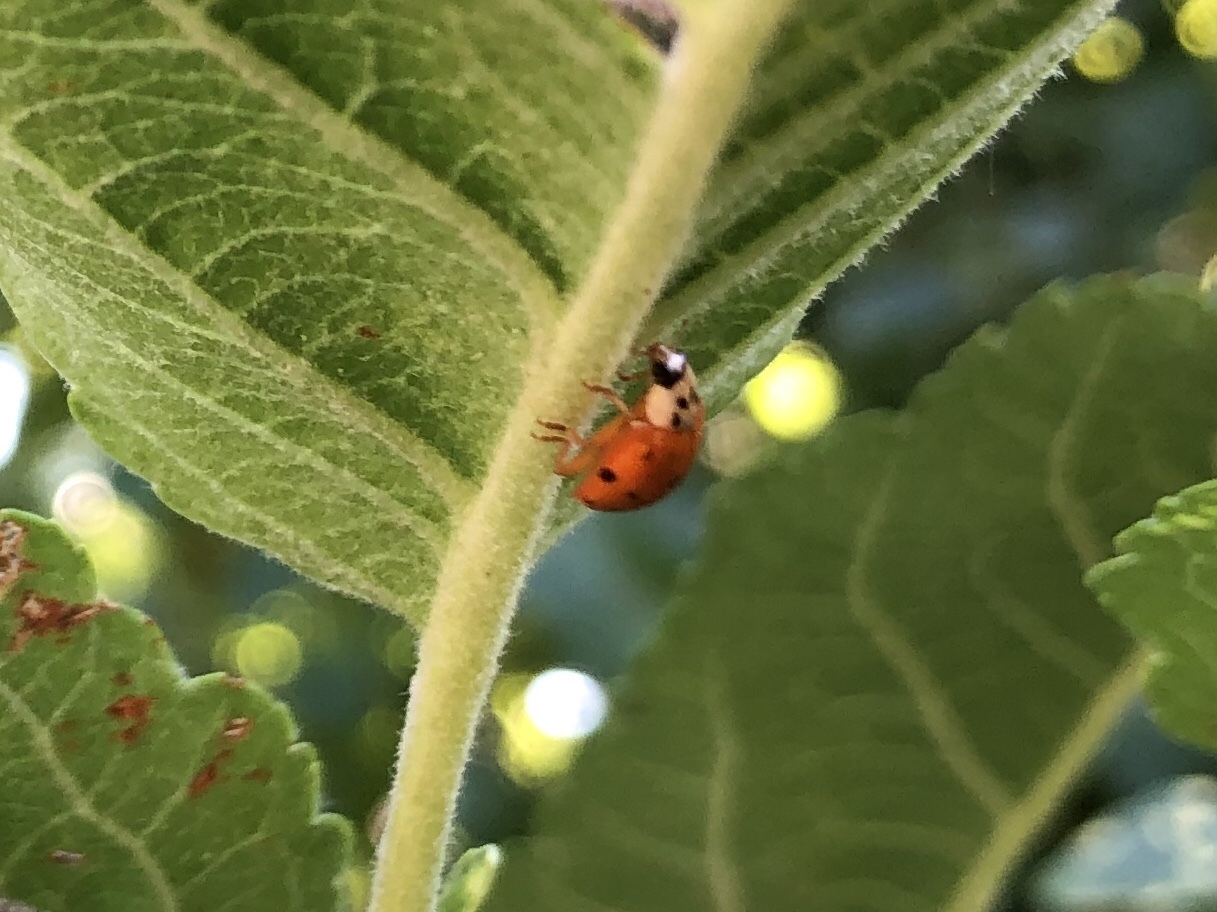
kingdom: Animalia
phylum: Arthropoda
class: Insecta
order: Coleoptera
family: Coccinellidae
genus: Harmonia
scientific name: Harmonia axyridis
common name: Harlequin ladybird
